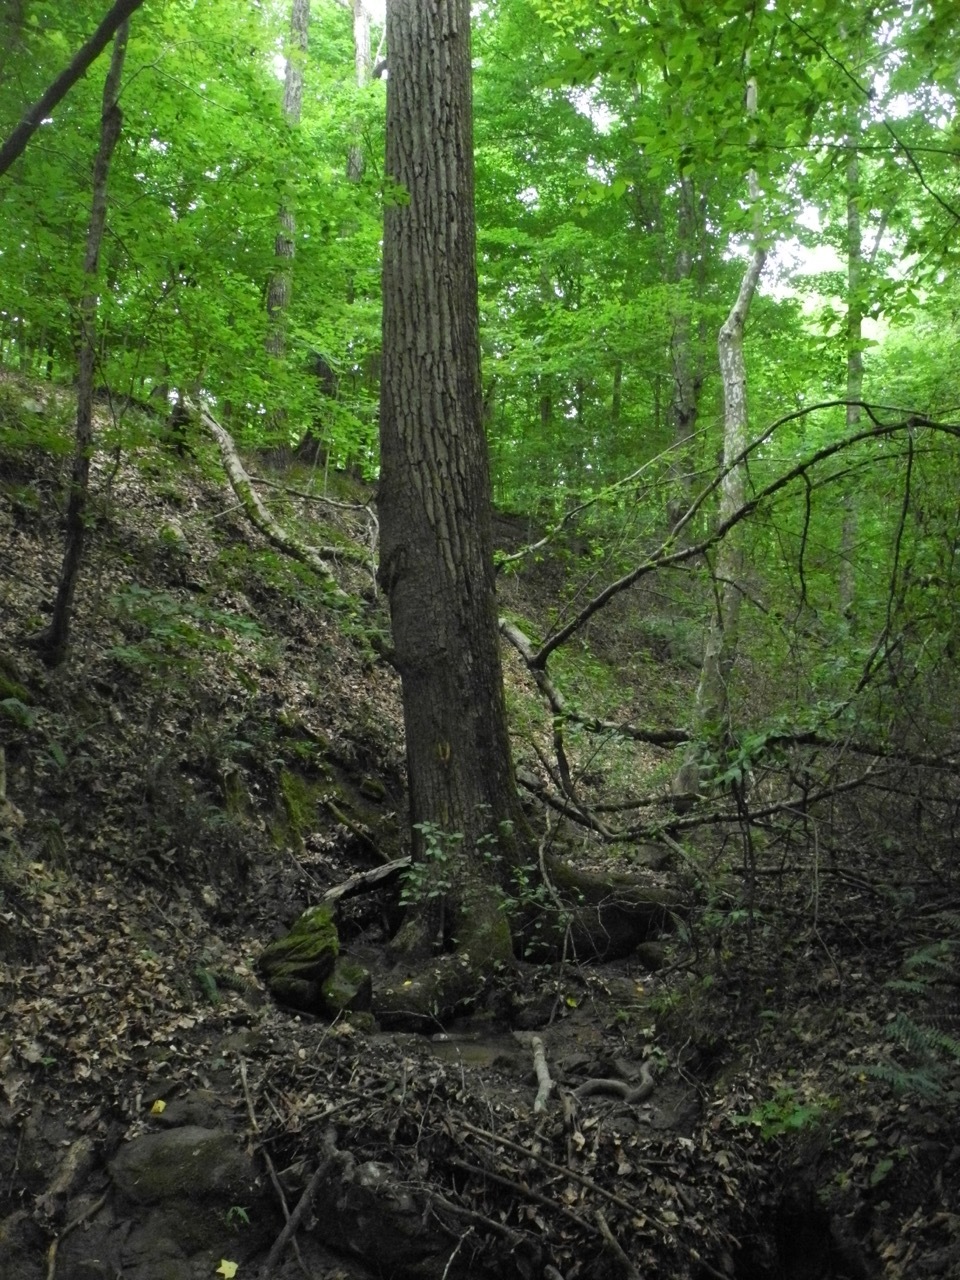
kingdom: Plantae
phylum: Tracheophyta
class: Magnoliopsida
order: Magnoliales
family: Magnoliaceae
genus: Liriodendron
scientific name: Liriodendron tulipifera
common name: Tulip tree
